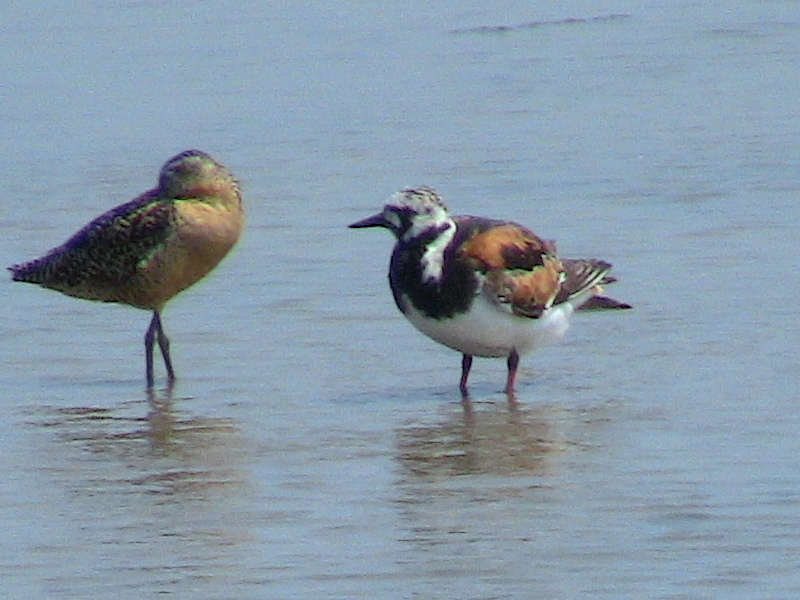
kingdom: Animalia
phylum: Chordata
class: Aves
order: Charadriiformes
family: Scolopacidae
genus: Arenaria
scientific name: Arenaria interpres
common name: Ruddy turnstone
